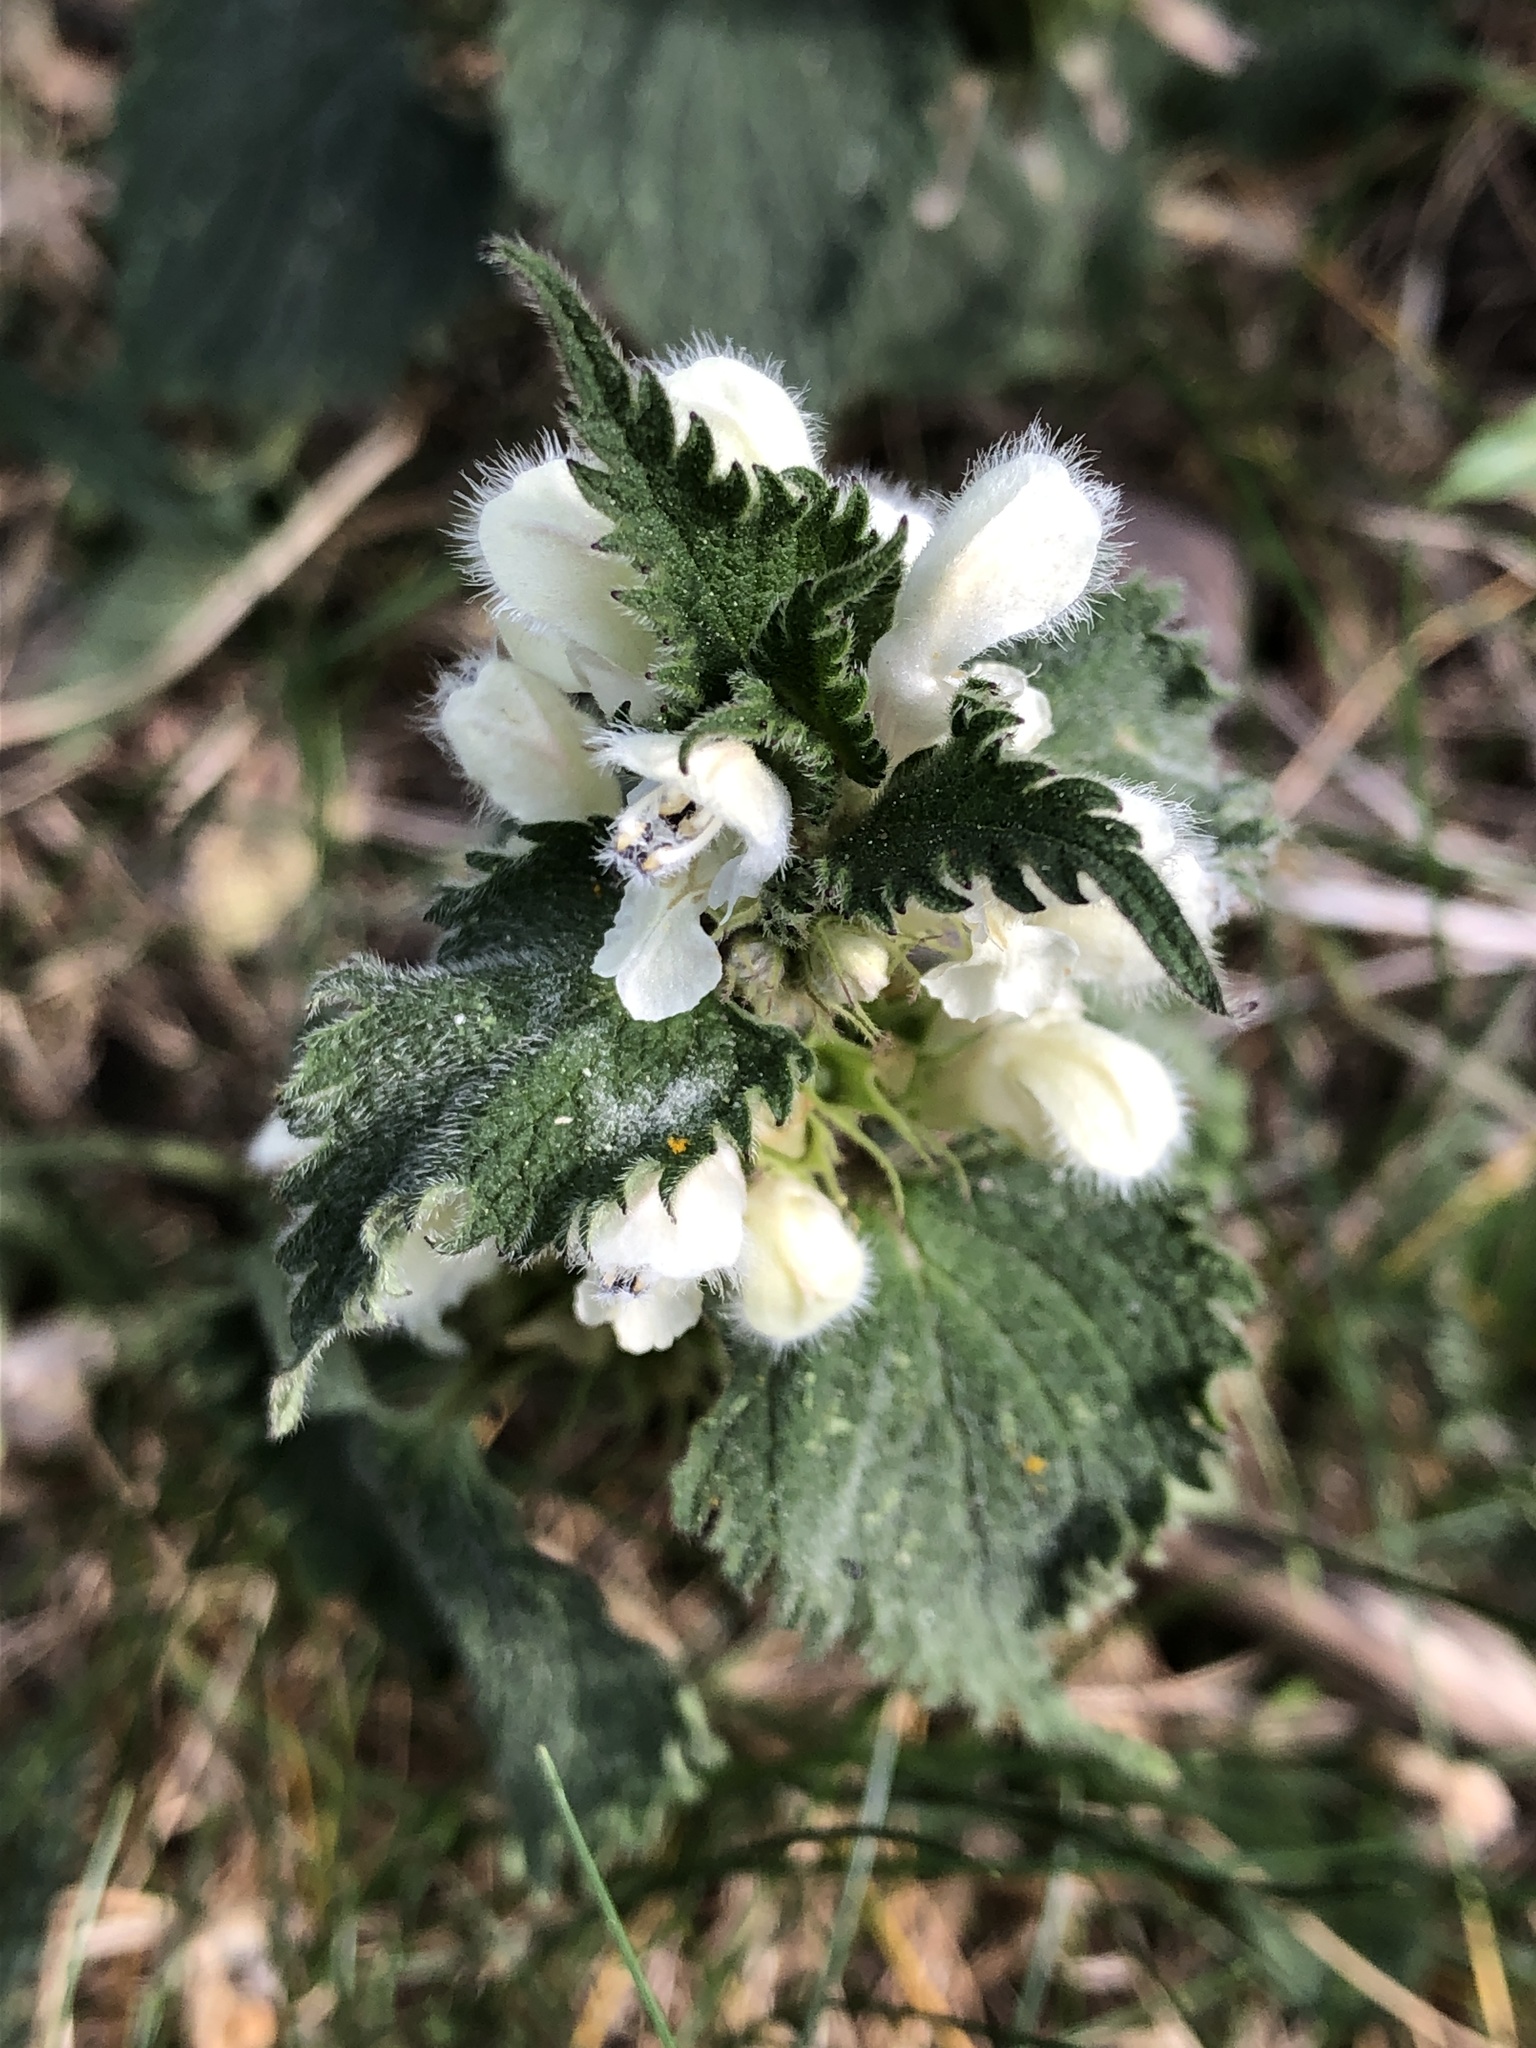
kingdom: Plantae
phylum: Tracheophyta
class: Magnoliopsida
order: Lamiales
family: Lamiaceae
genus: Lamium
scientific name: Lamium album
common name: White dead-nettle
